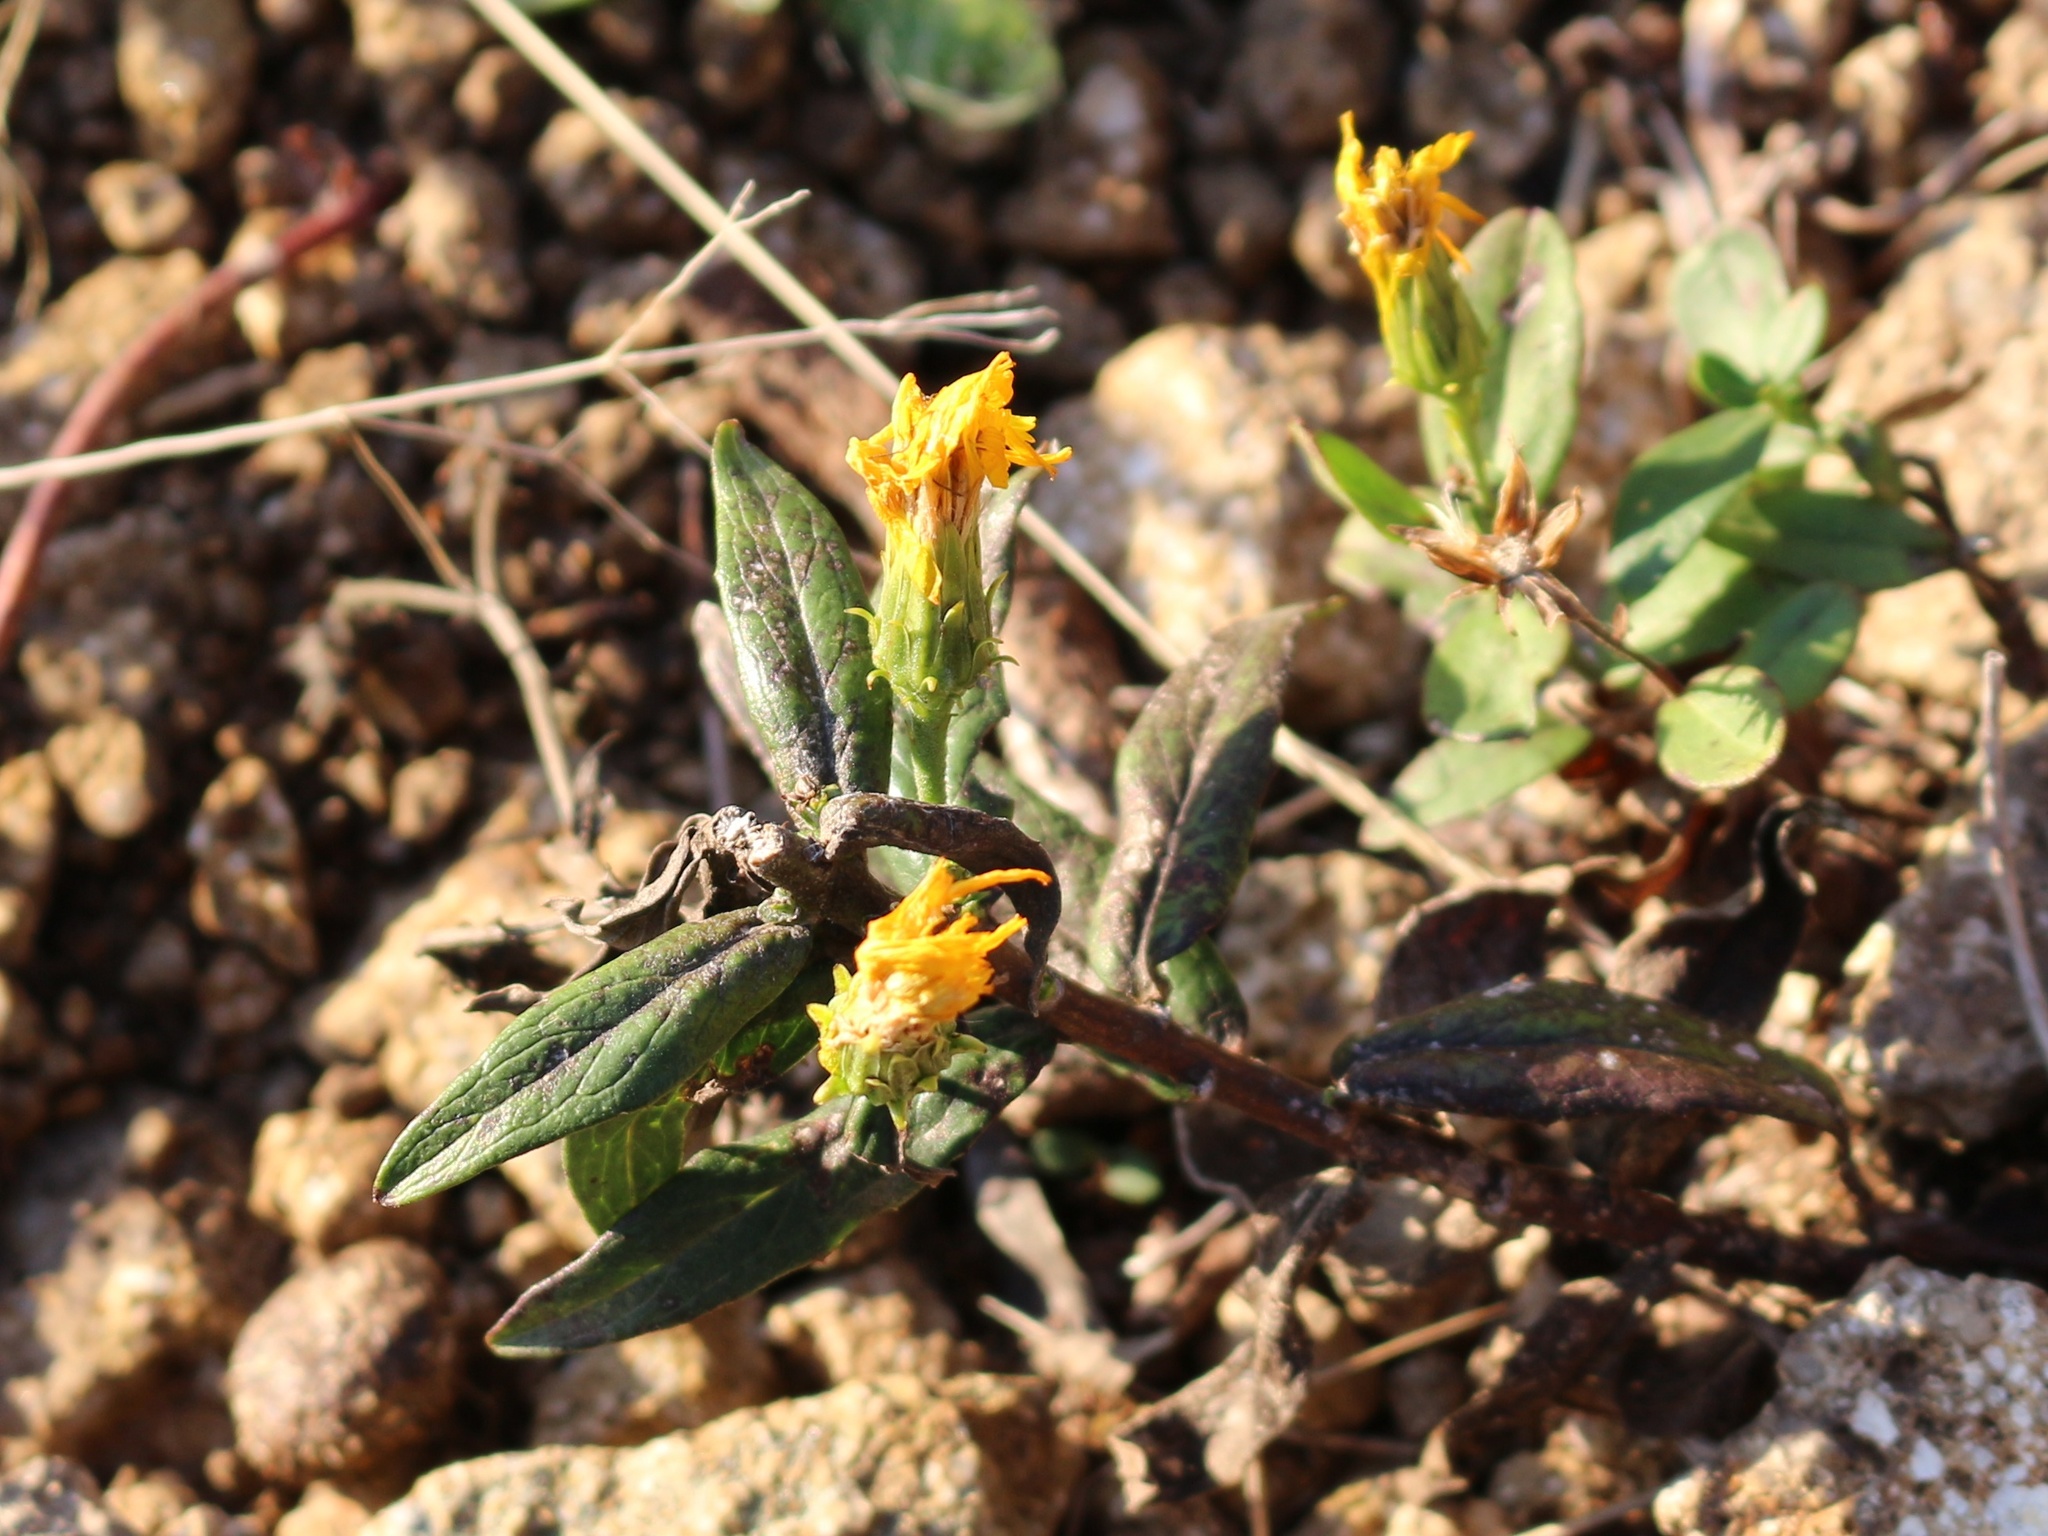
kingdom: Plantae
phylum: Tracheophyta
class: Magnoliopsida
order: Asterales
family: Asteraceae
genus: Hieracium
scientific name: Hieracium umbellatum
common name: Northern hawkweed
